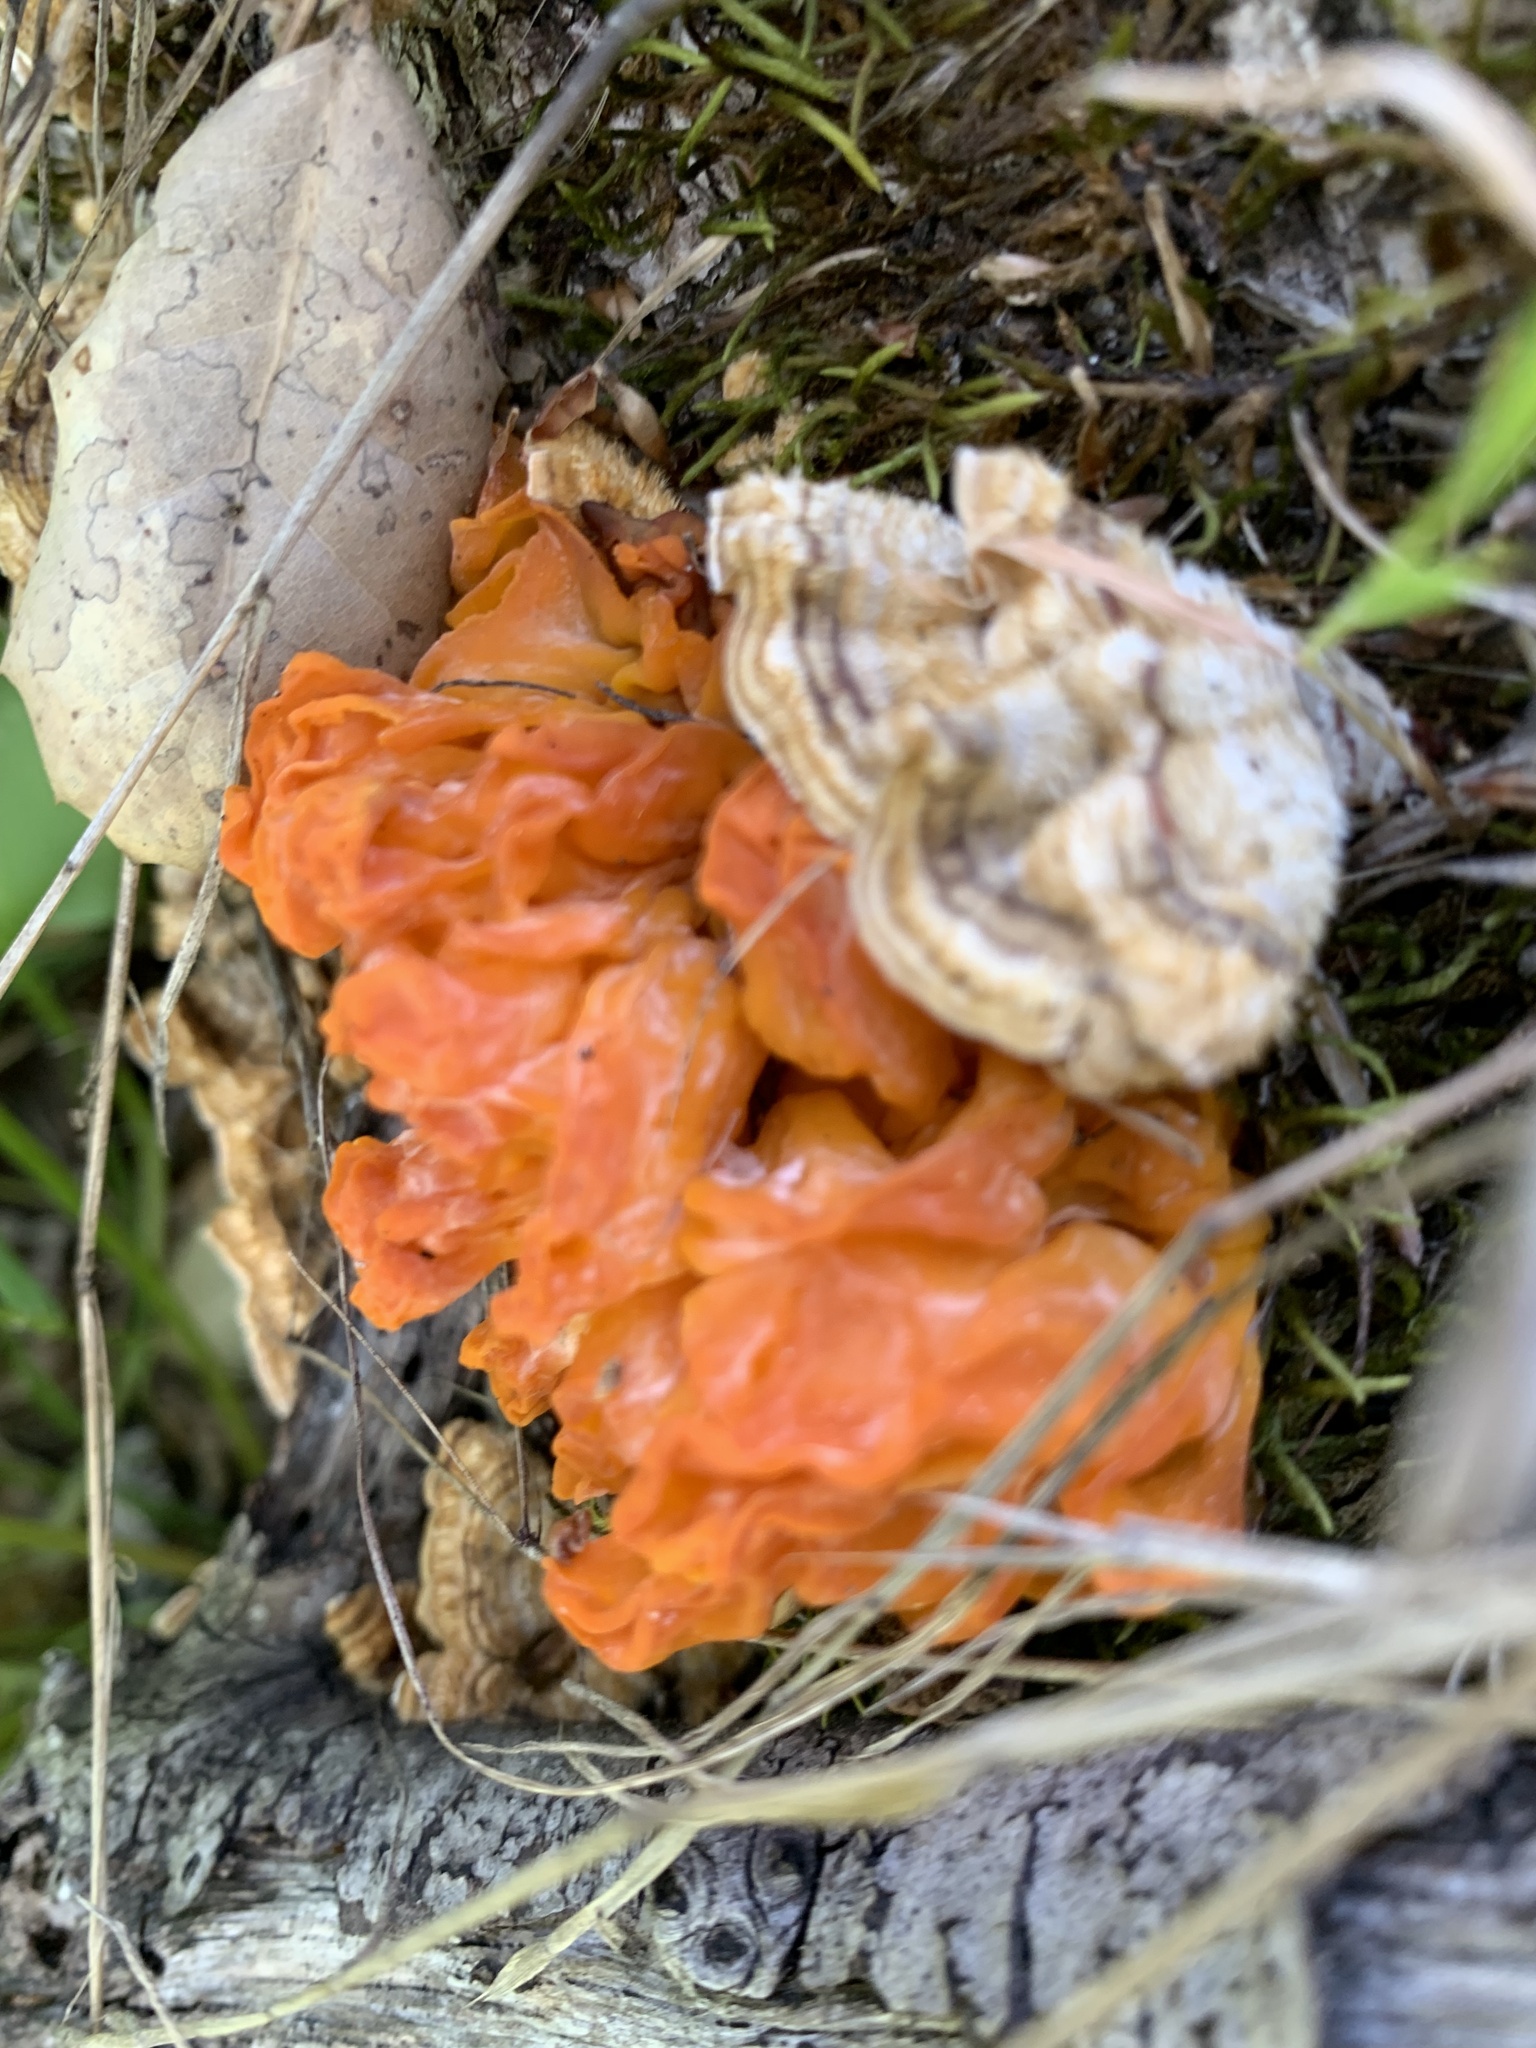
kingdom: Fungi
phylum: Basidiomycota
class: Tremellomycetes
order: Tremellales
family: Naemateliaceae
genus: Naematelia
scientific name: Naematelia aurantia
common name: Golden ear
